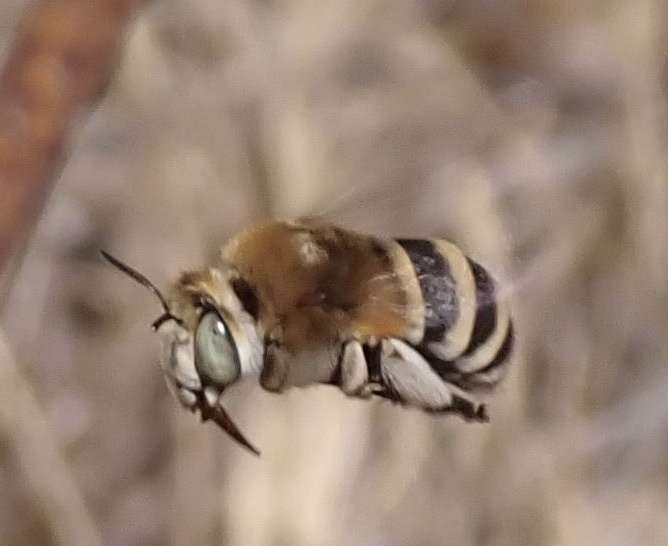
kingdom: Animalia
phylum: Arthropoda
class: Insecta
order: Hymenoptera
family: Apidae
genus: Amegilla
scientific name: Amegilla quadrifasciata
